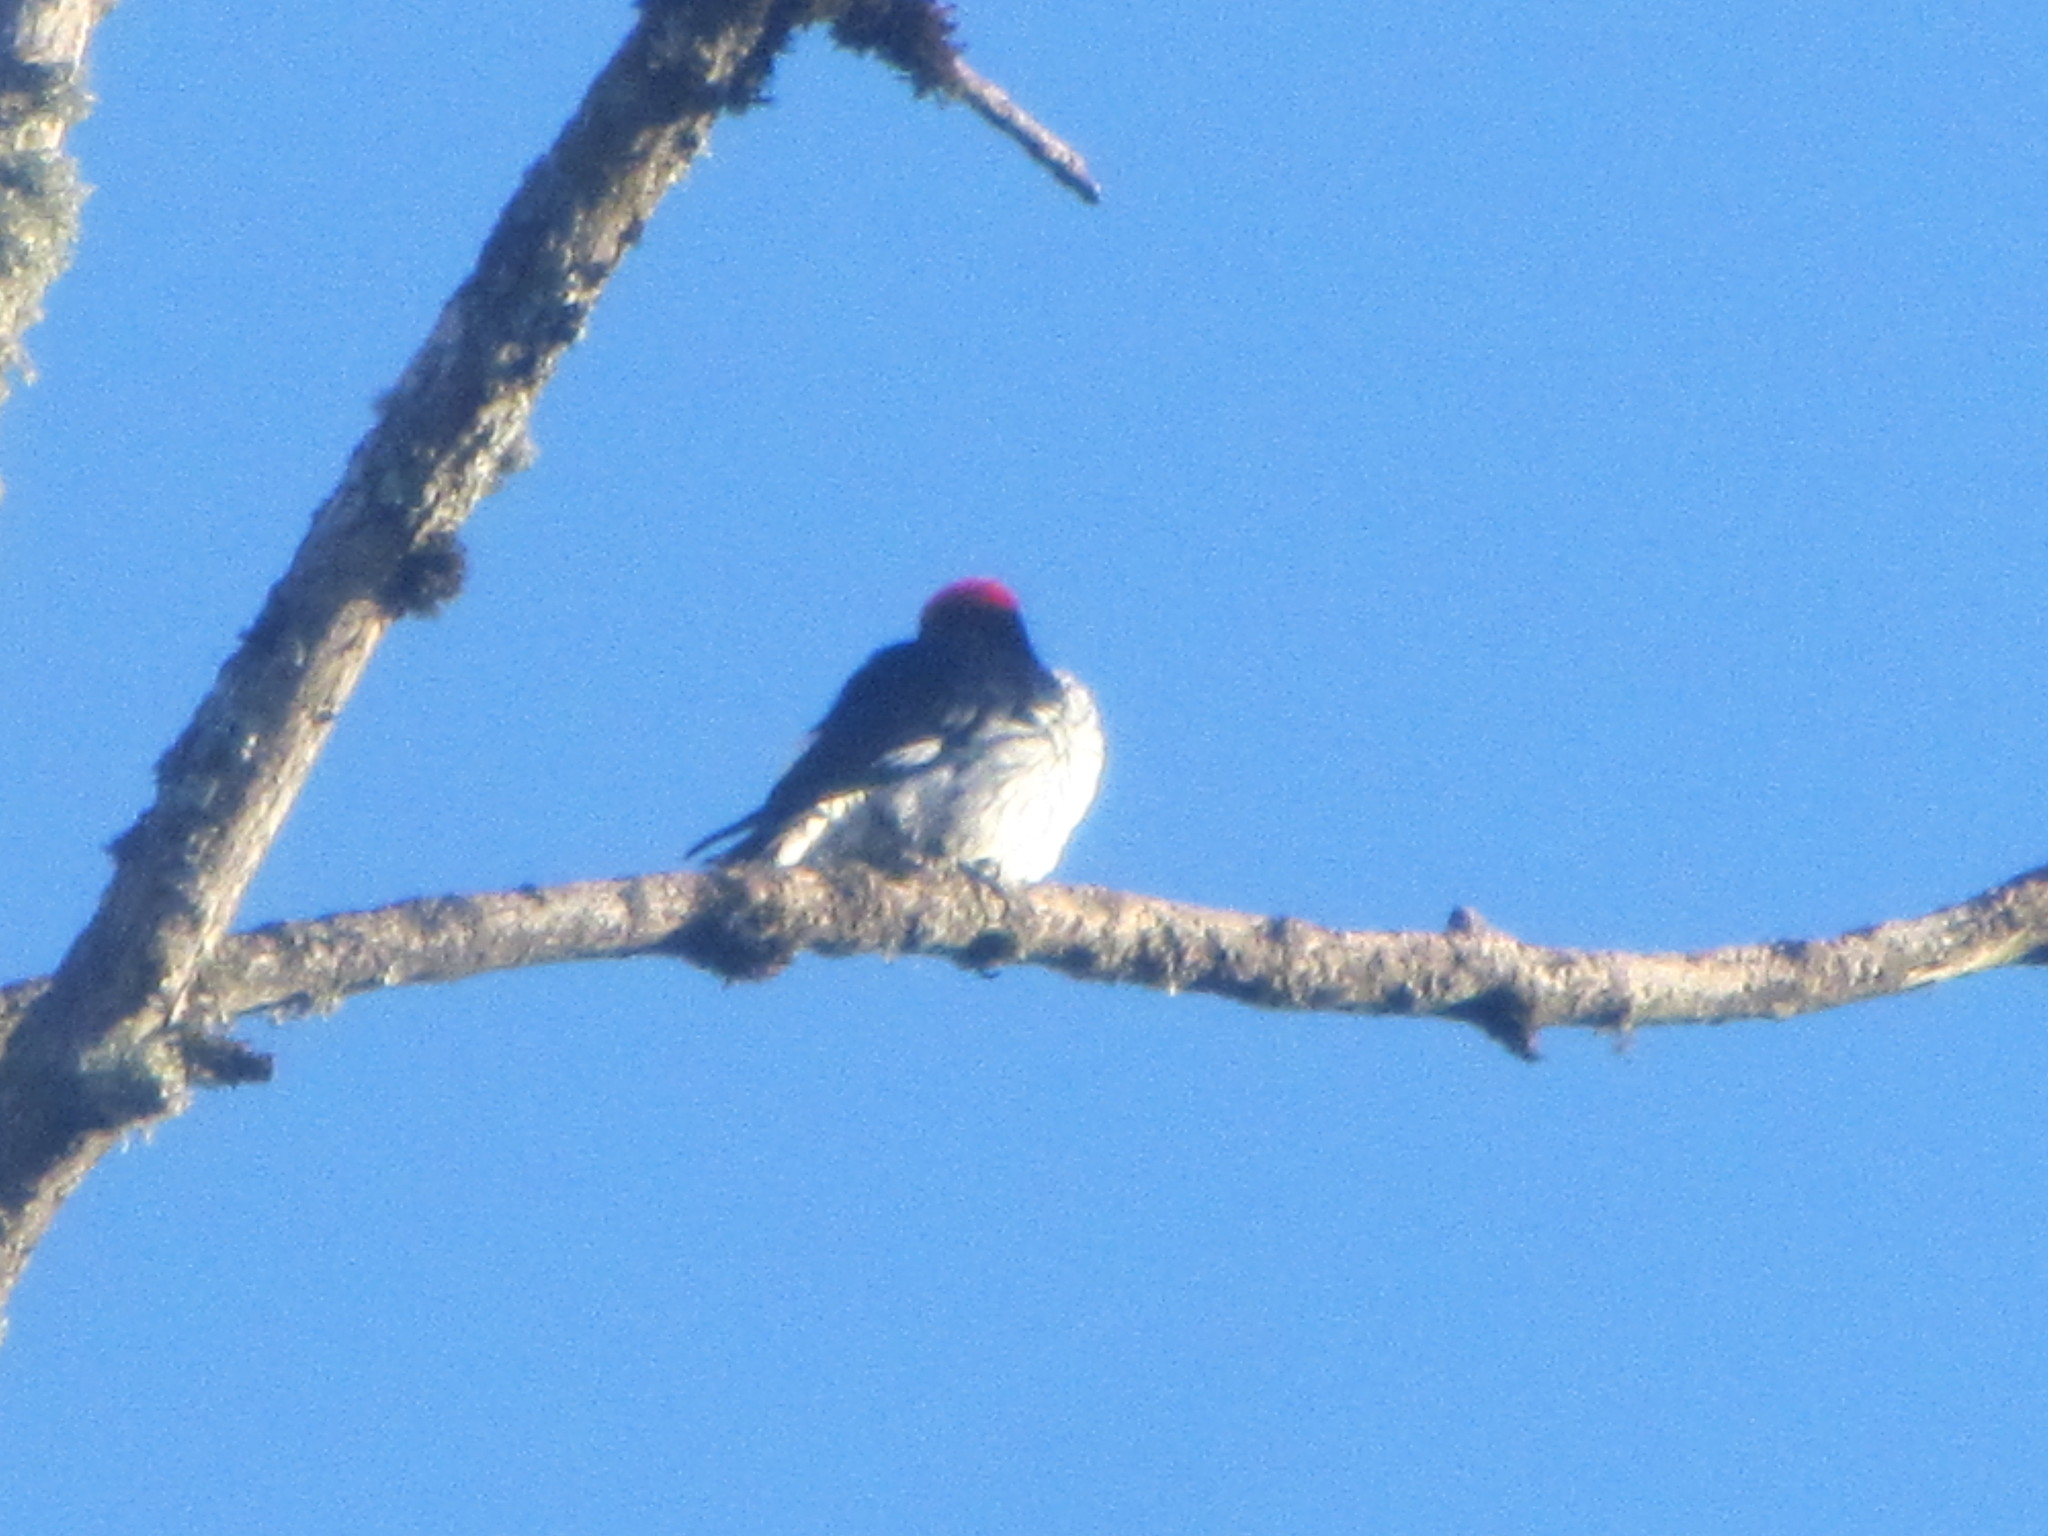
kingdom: Animalia
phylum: Chordata
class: Aves
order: Piciformes
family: Picidae
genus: Melanerpes
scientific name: Melanerpes formicivorus
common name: Acorn woodpecker
